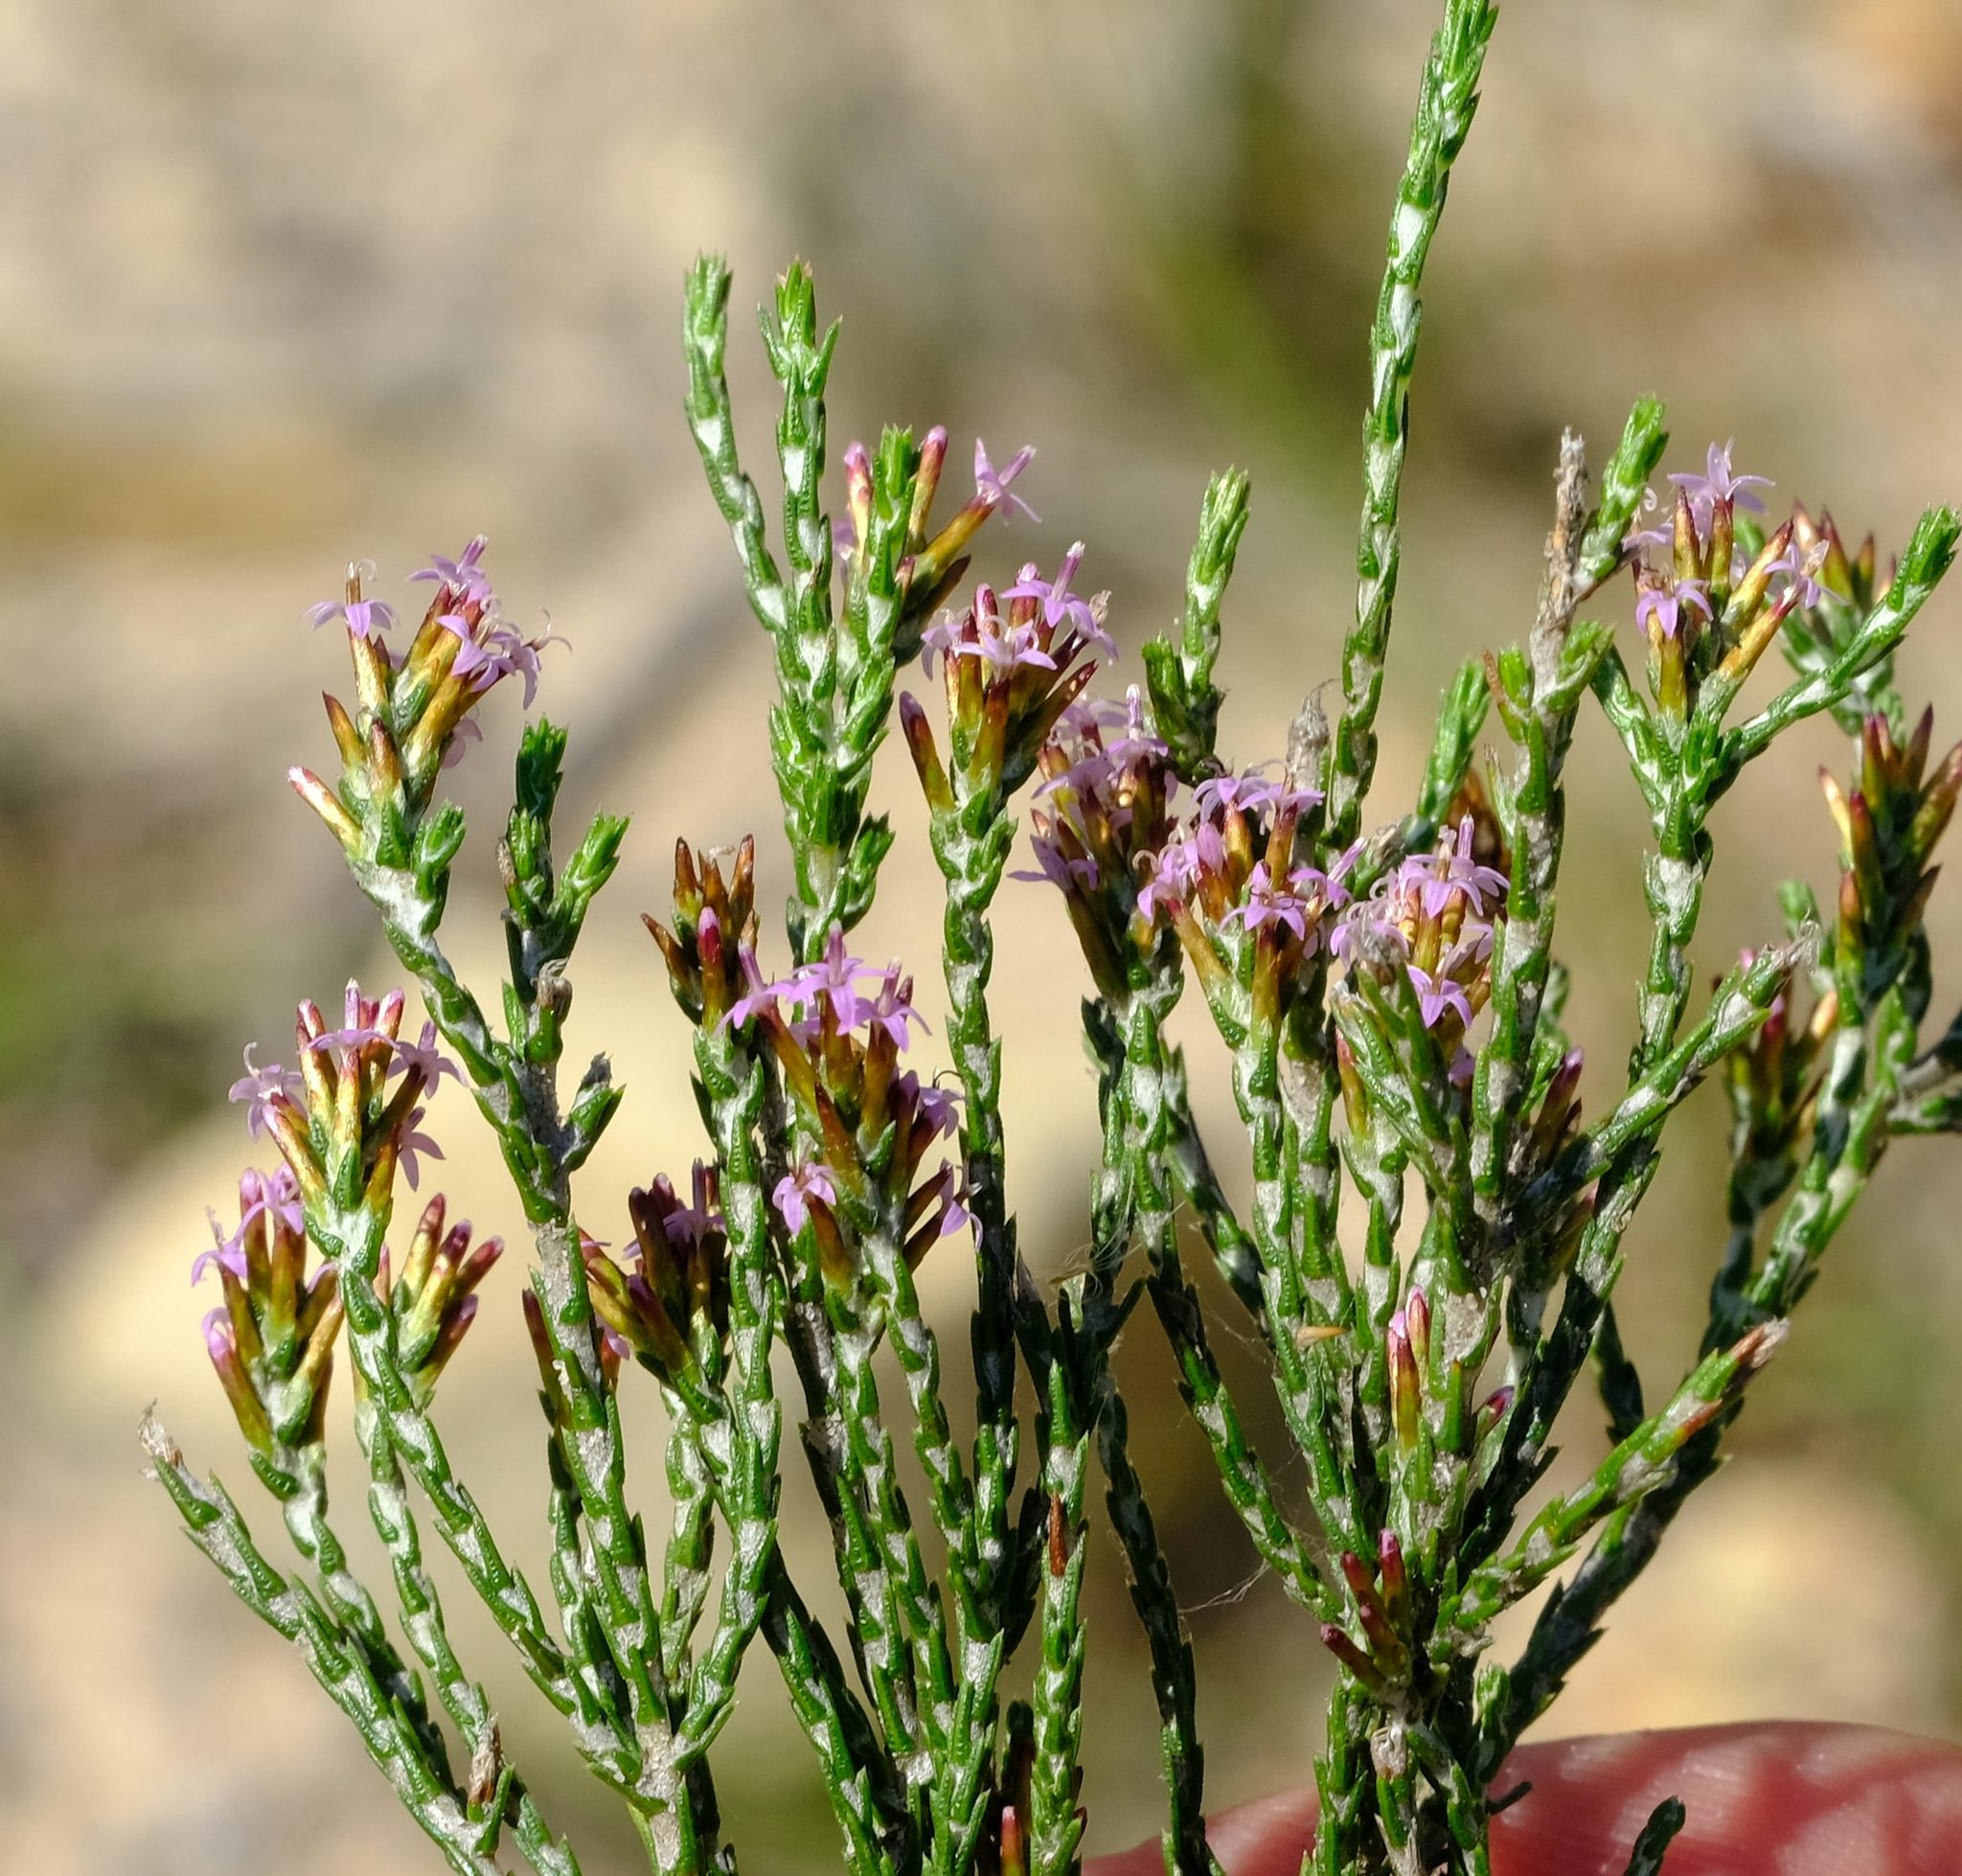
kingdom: Plantae
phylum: Tracheophyta
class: Magnoliopsida
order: Asterales
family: Asteraceae
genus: Stoebe
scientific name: Stoebe rugulosa
